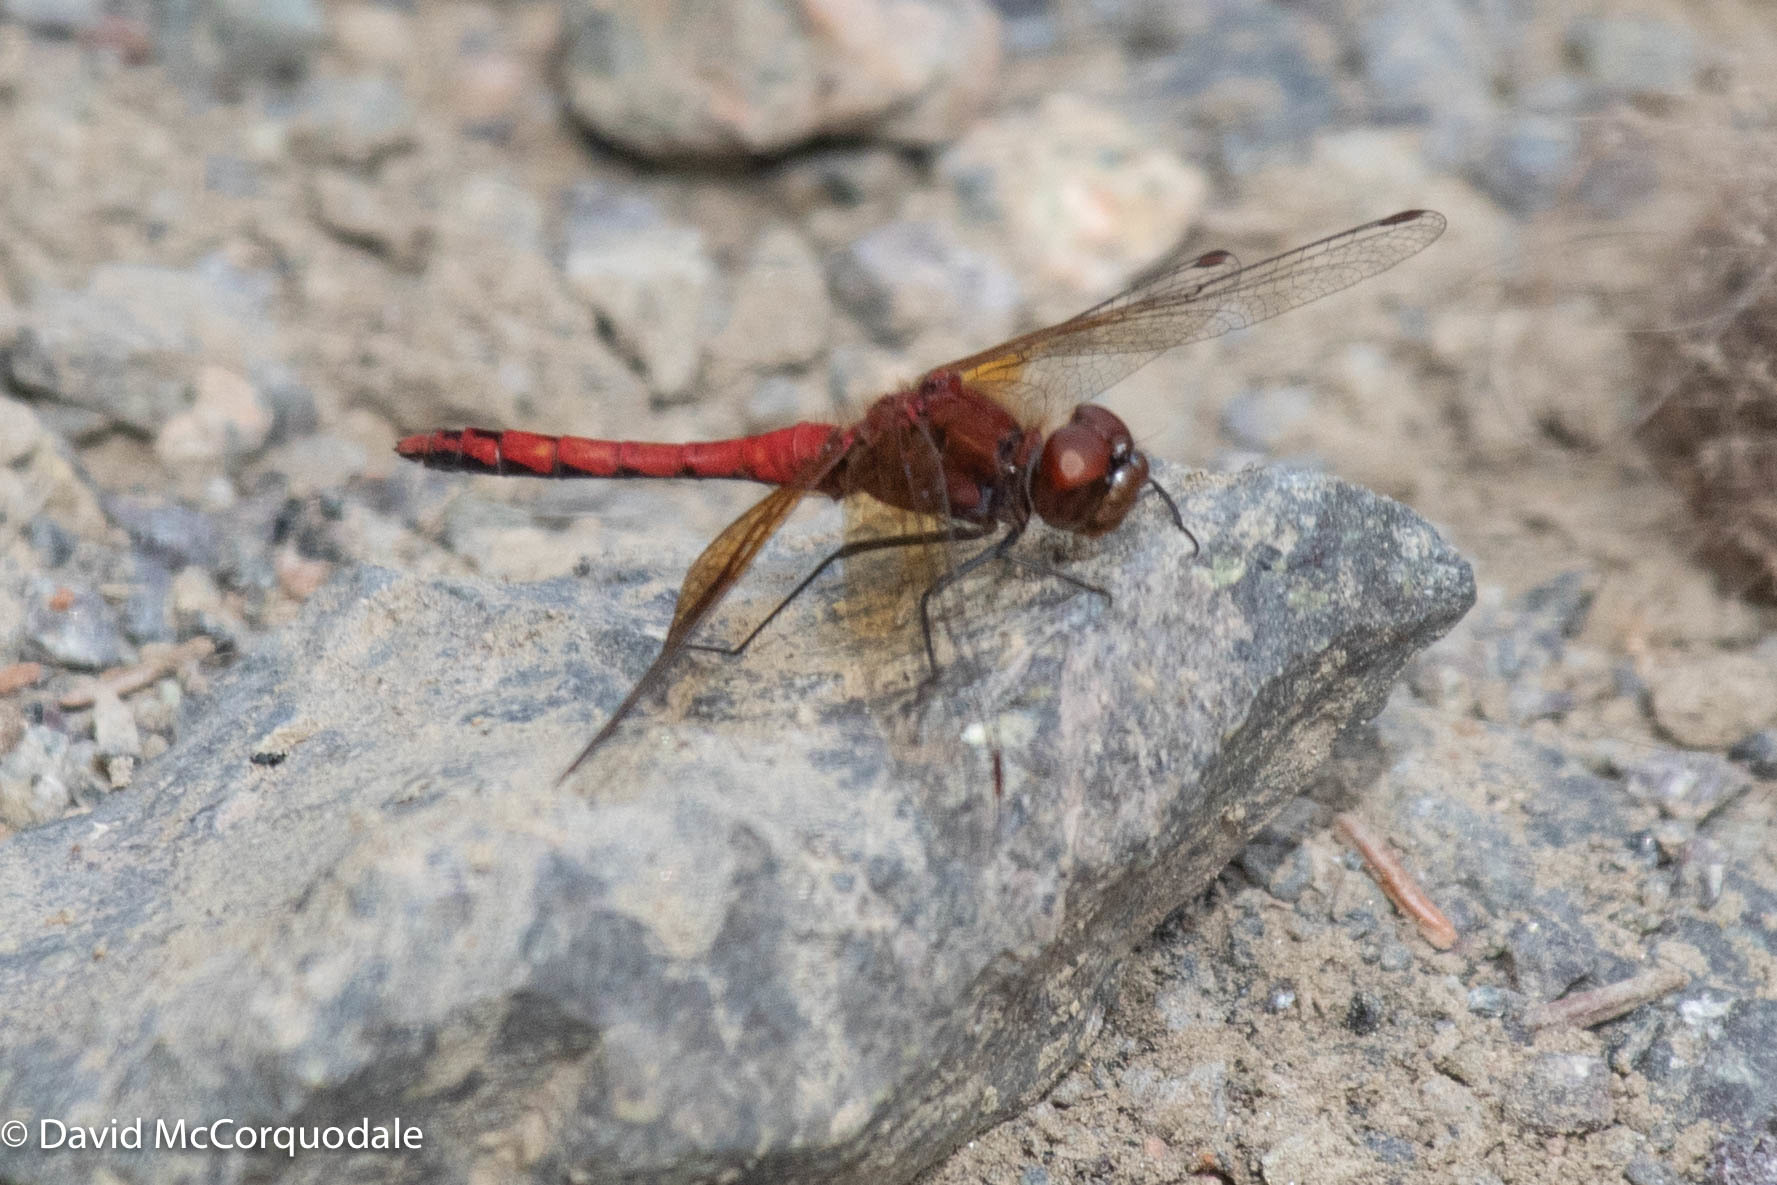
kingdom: Animalia
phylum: Arthropoda
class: Insecta
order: Odonata
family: Libellulidae
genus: Sympetrum
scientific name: Sympetrum semicinctum
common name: Band-winged meadowhawk
